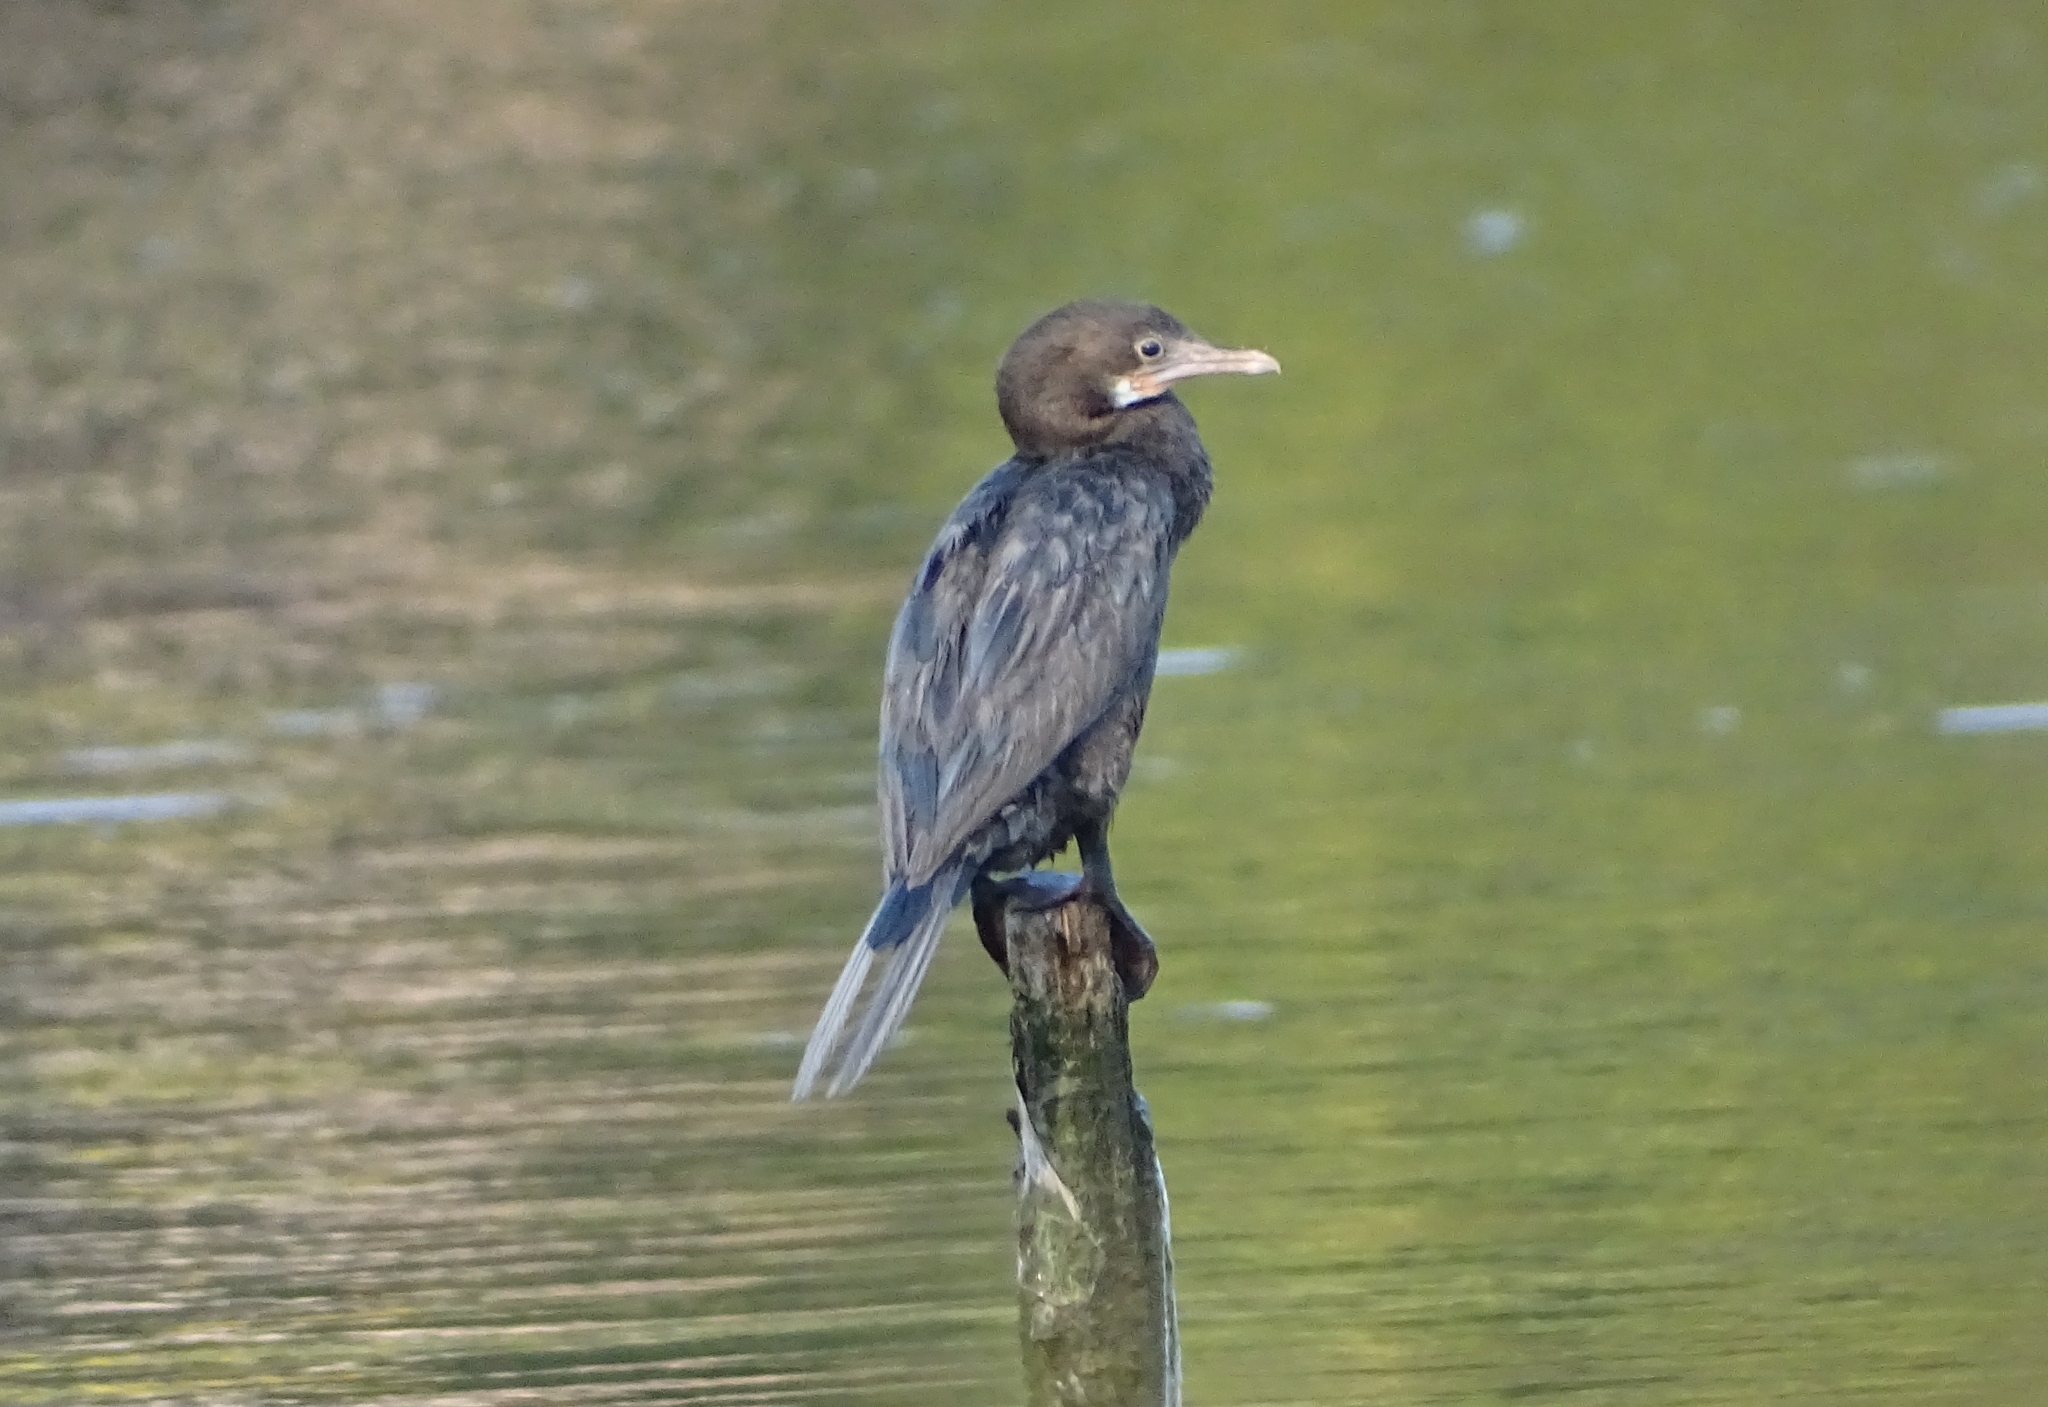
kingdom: Animalia
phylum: Chordata
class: Aves
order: Suliformes
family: Phalacrocoracidae
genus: Microcarbo
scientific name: Microcarbo niger
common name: Little cormorant
